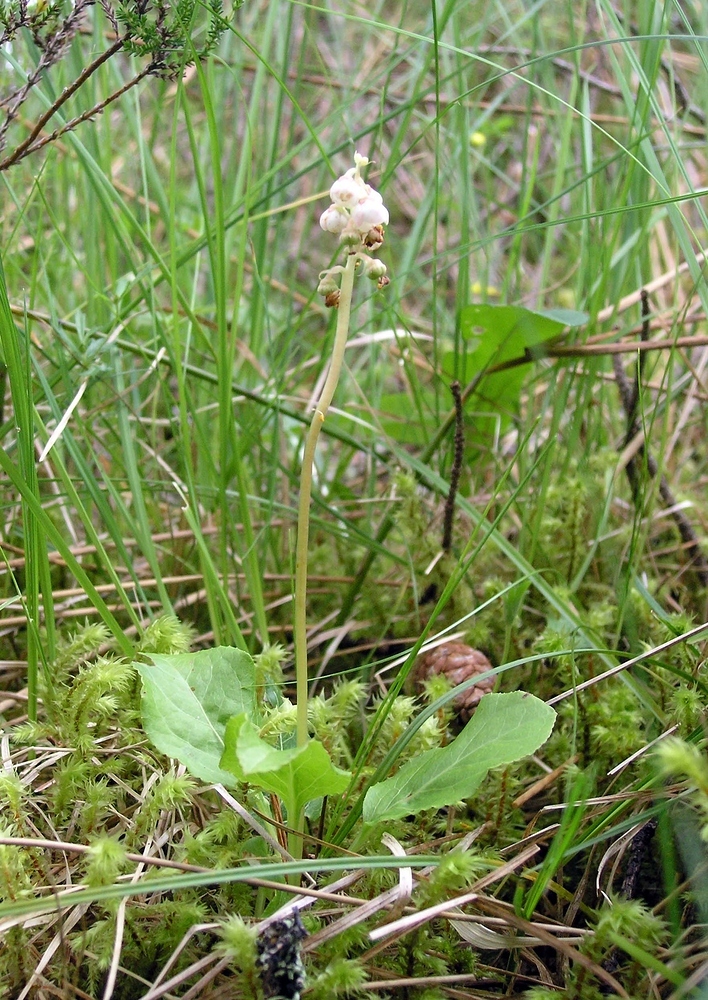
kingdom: Plantae
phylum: Tracheophyta
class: Magnoliopsida
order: Ericales
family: Ericaceae
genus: Pyrola
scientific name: Pyrola minor
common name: Common wintergreen
